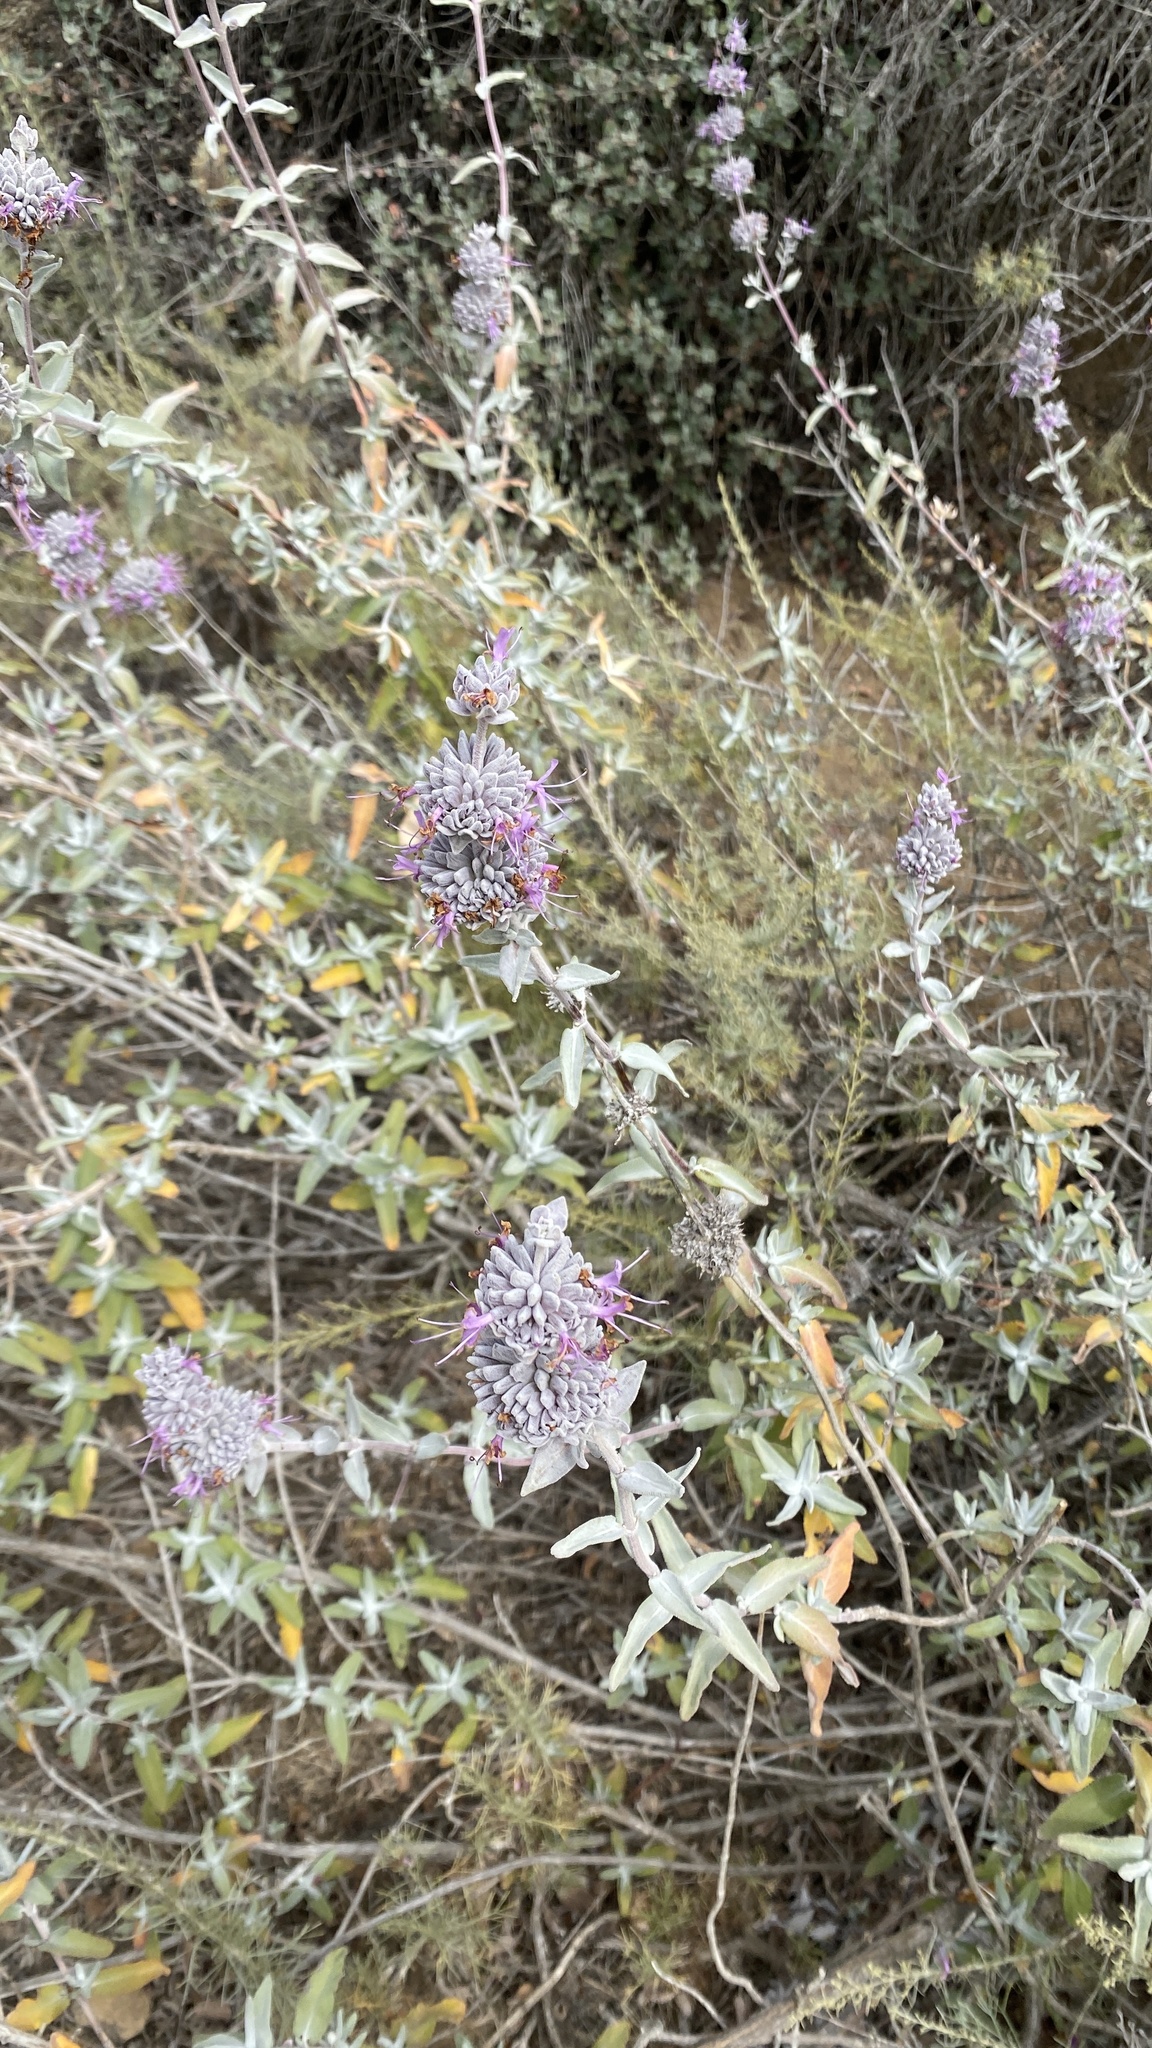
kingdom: Plantae
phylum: Tracheophyta
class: Magnoliopsida
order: Lamiales
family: Lamiaceae
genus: Salvia
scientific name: Salvia leucophylla
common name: Purple sage
